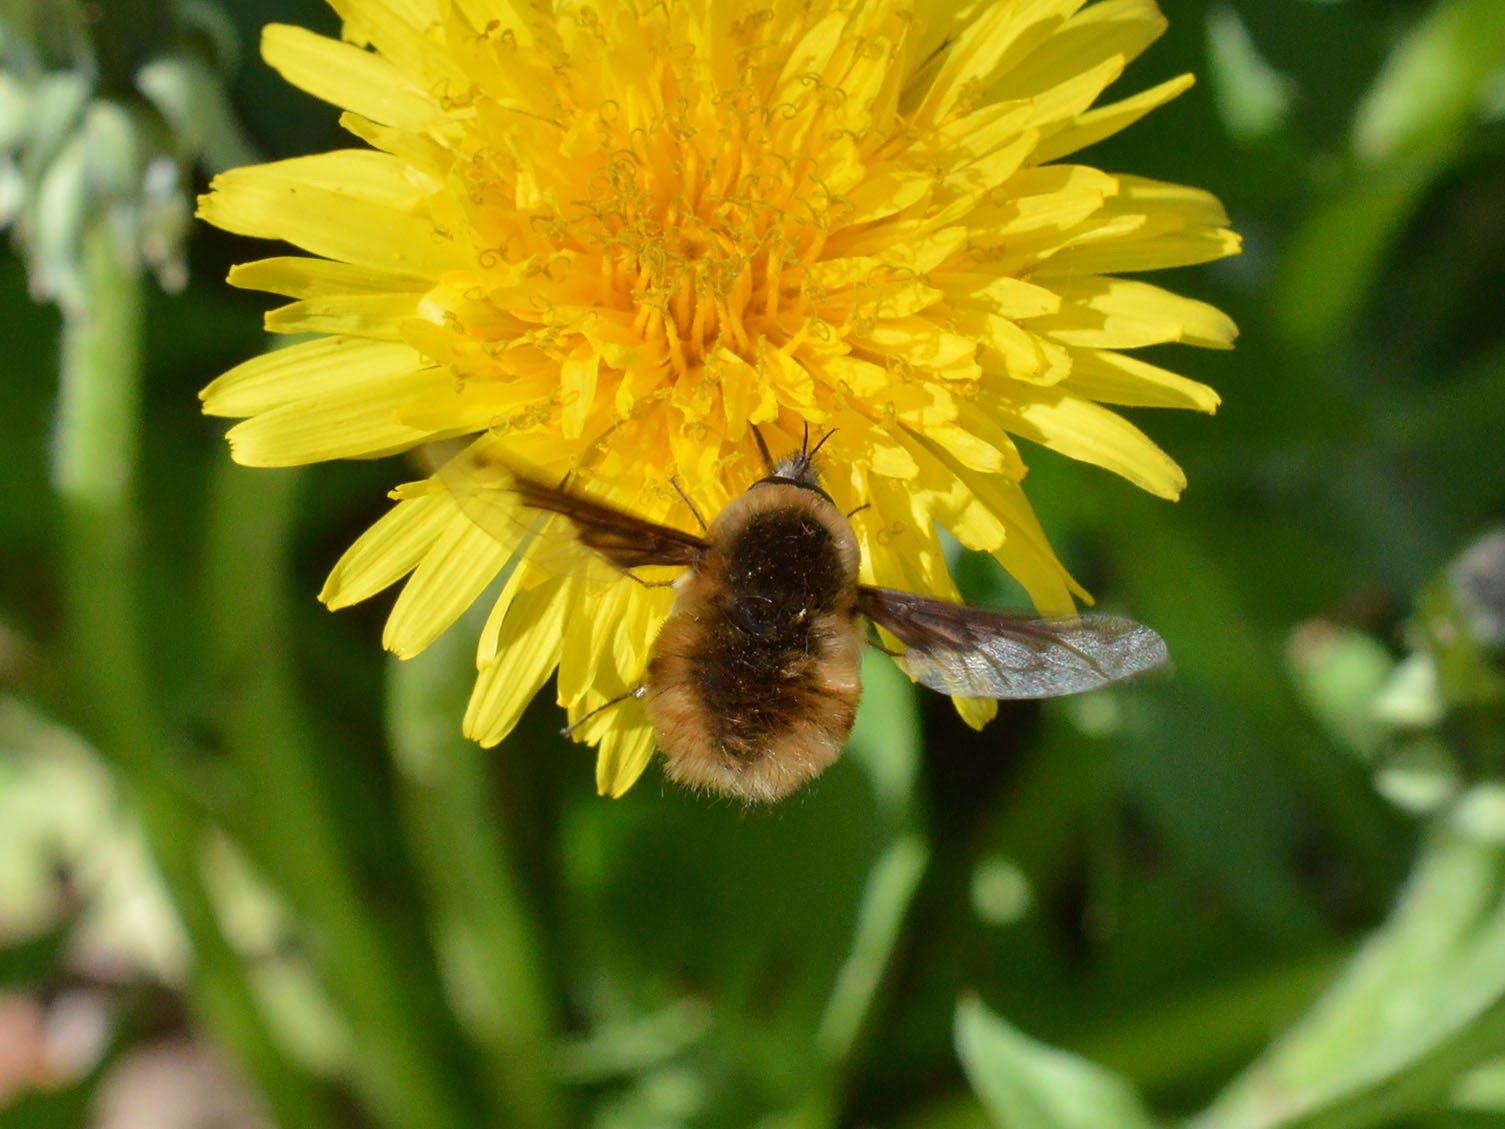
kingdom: Animalia
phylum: Arthropoda
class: Insecta
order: Diptera
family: Bombyliidae
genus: Bombylius
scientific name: Bombylius major
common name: Bee fly
